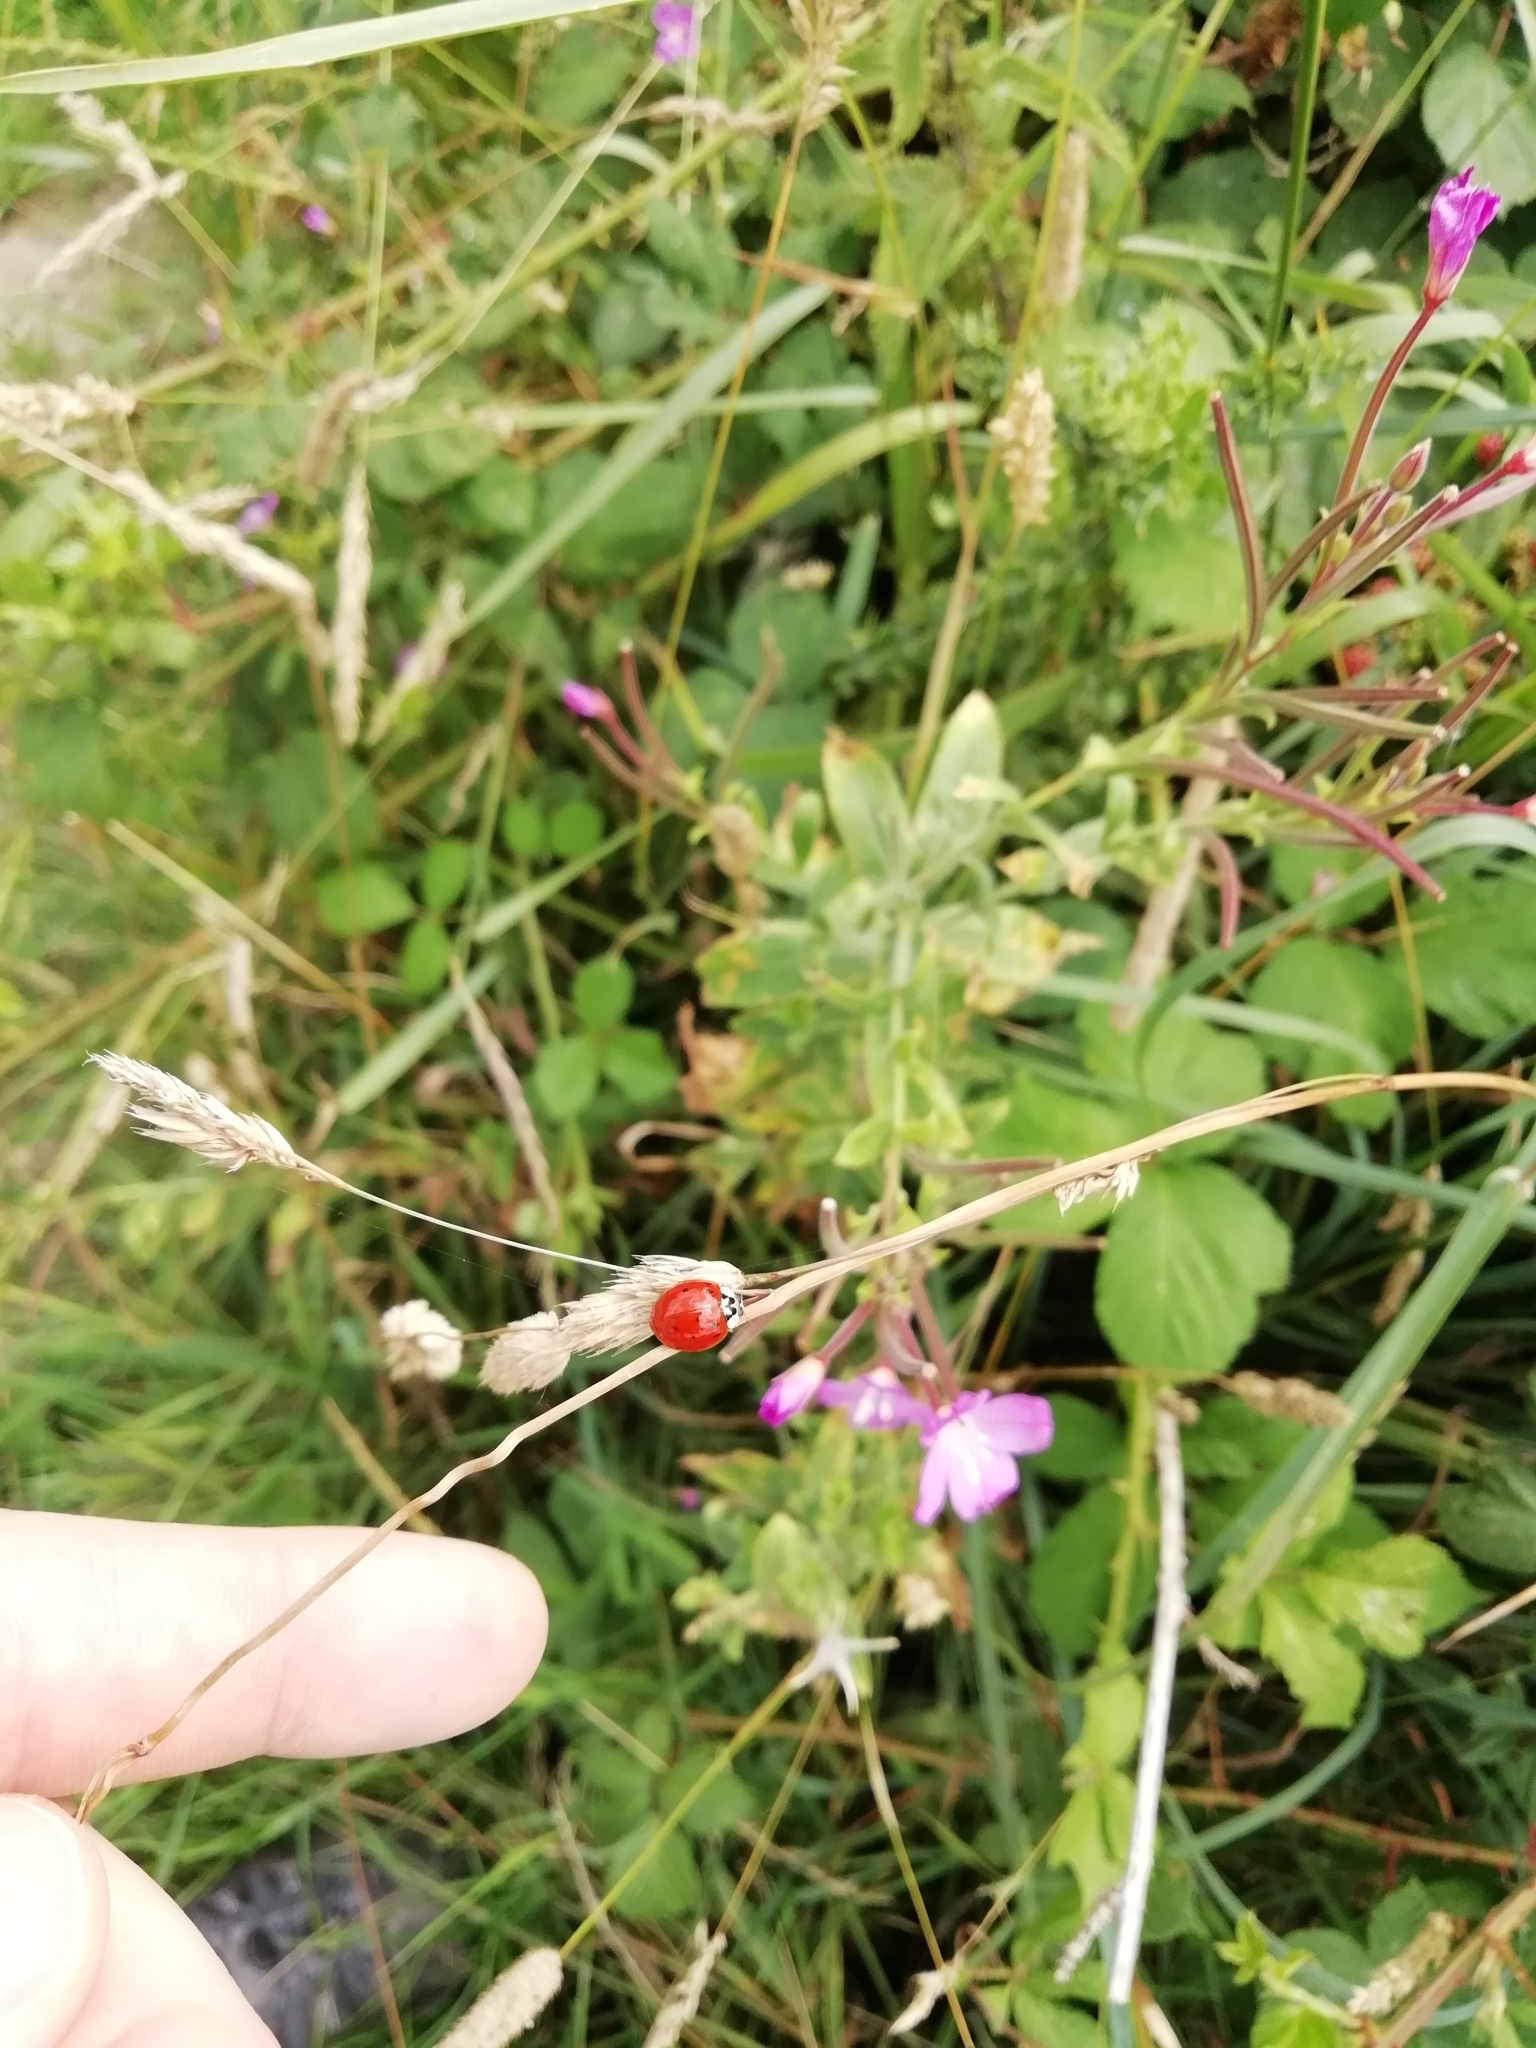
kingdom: Animalia
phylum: Arthropoda
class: Insecta
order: Coleoptera
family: Coccinellidae
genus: Harmonia
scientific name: Harmonia axyridis
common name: Harlequin ladybird
